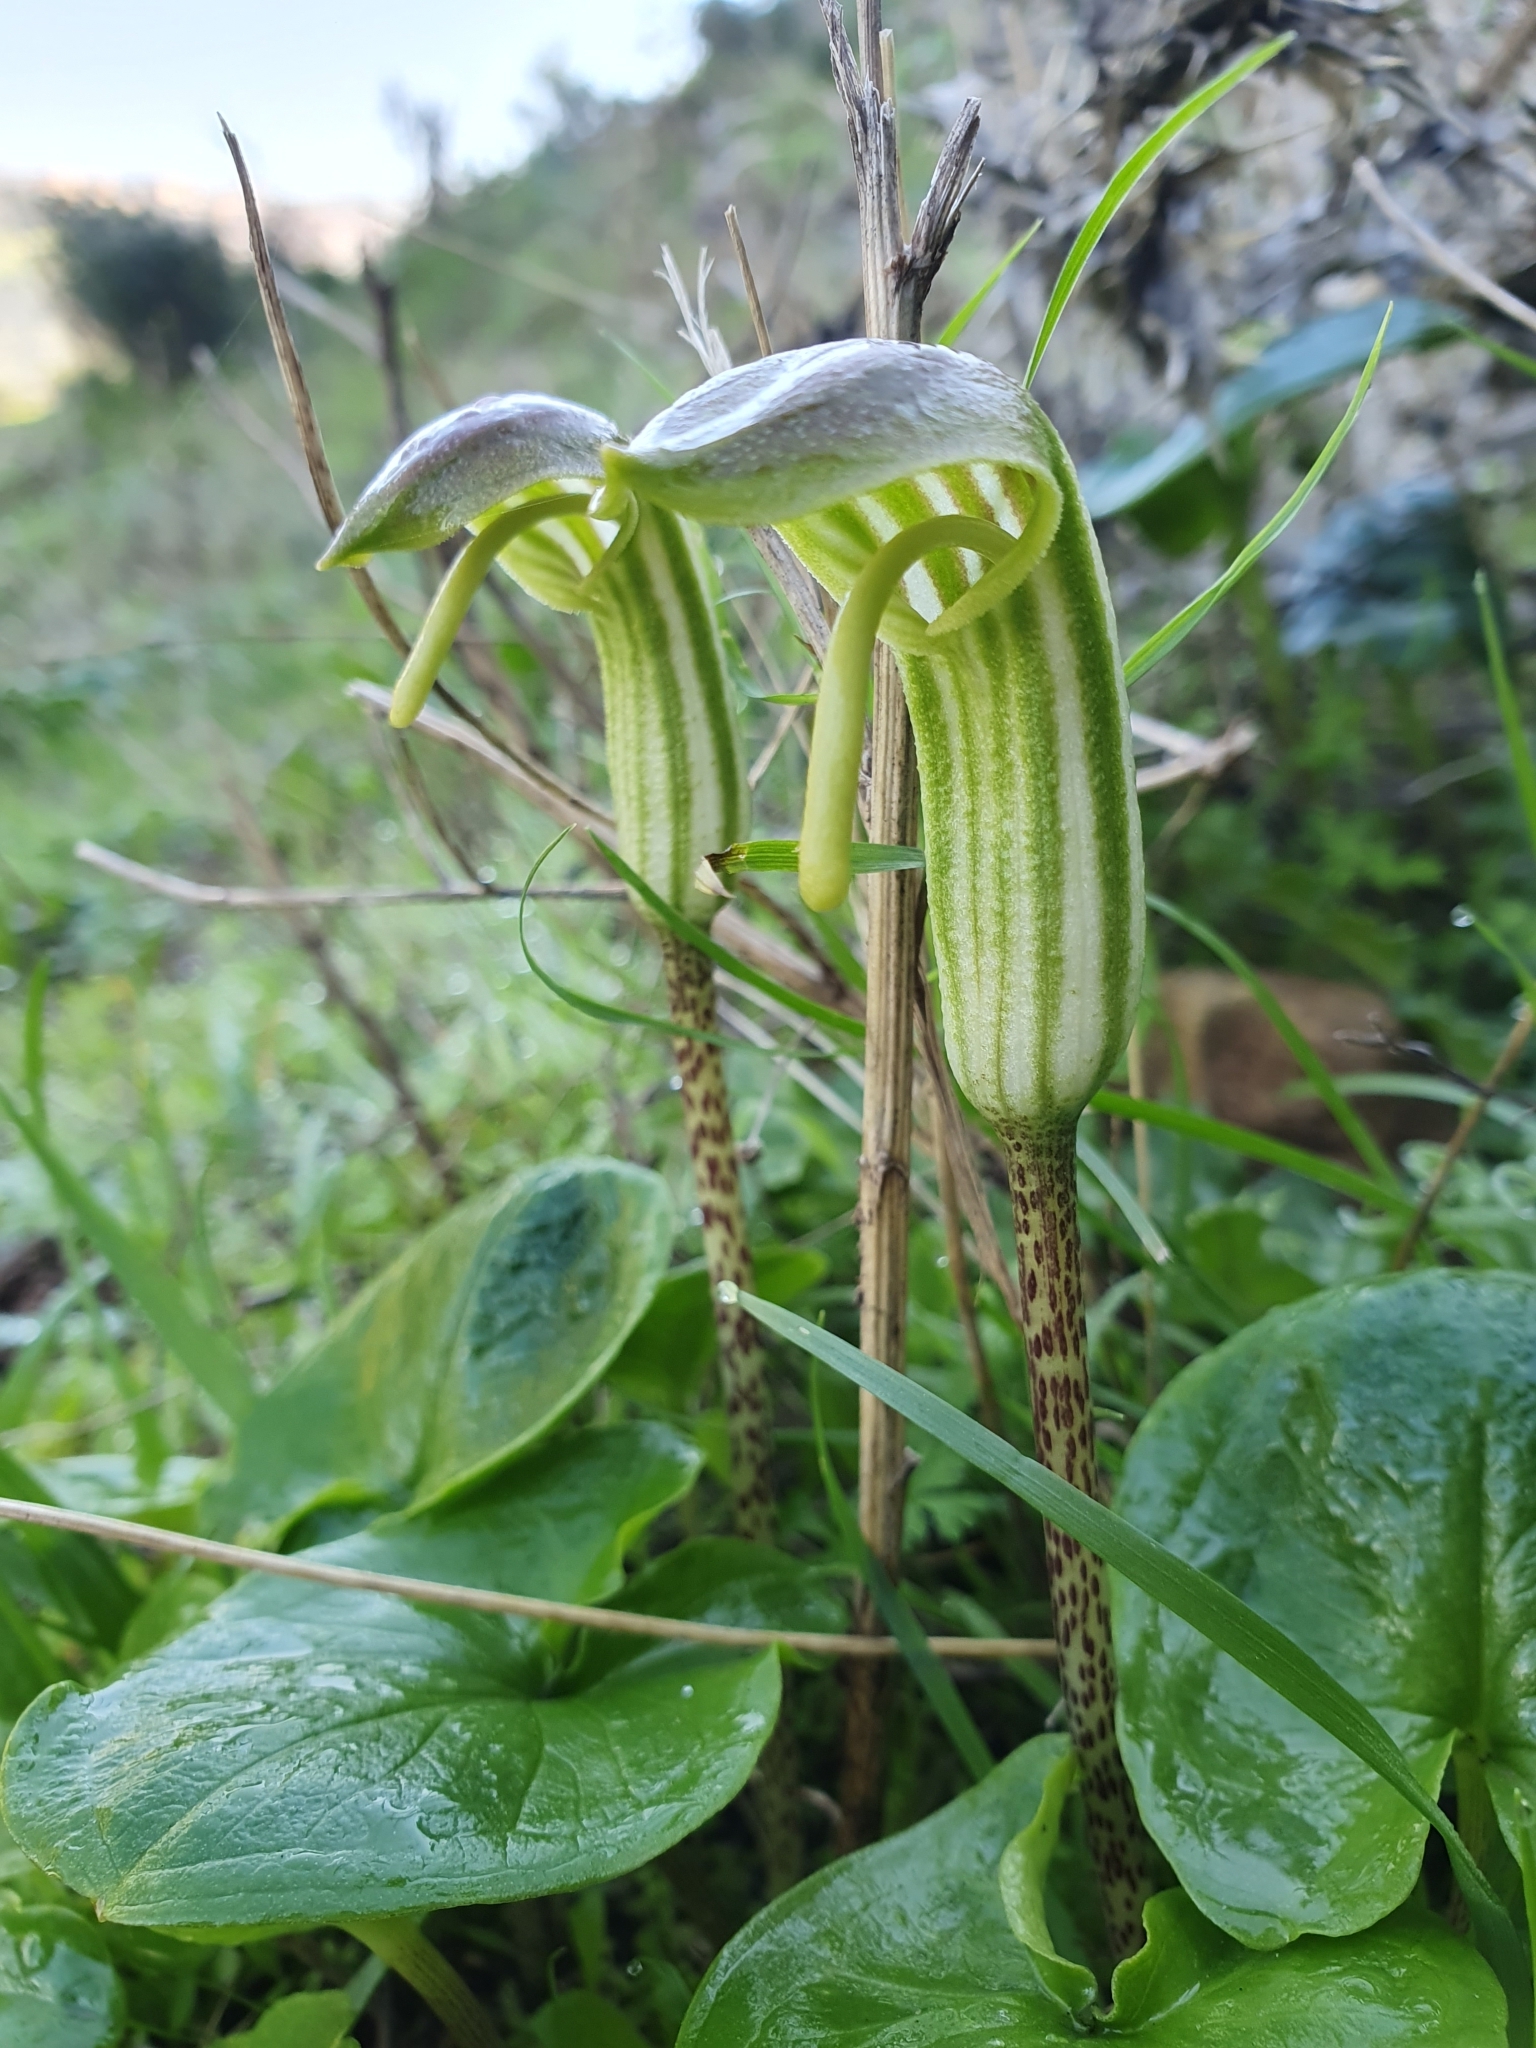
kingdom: Plantae
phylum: Tracheophyta
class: Liliopsida
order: Alismatales
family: Araceae
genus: Arisarum
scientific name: Arisarum vulgare
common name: Common arisarum
